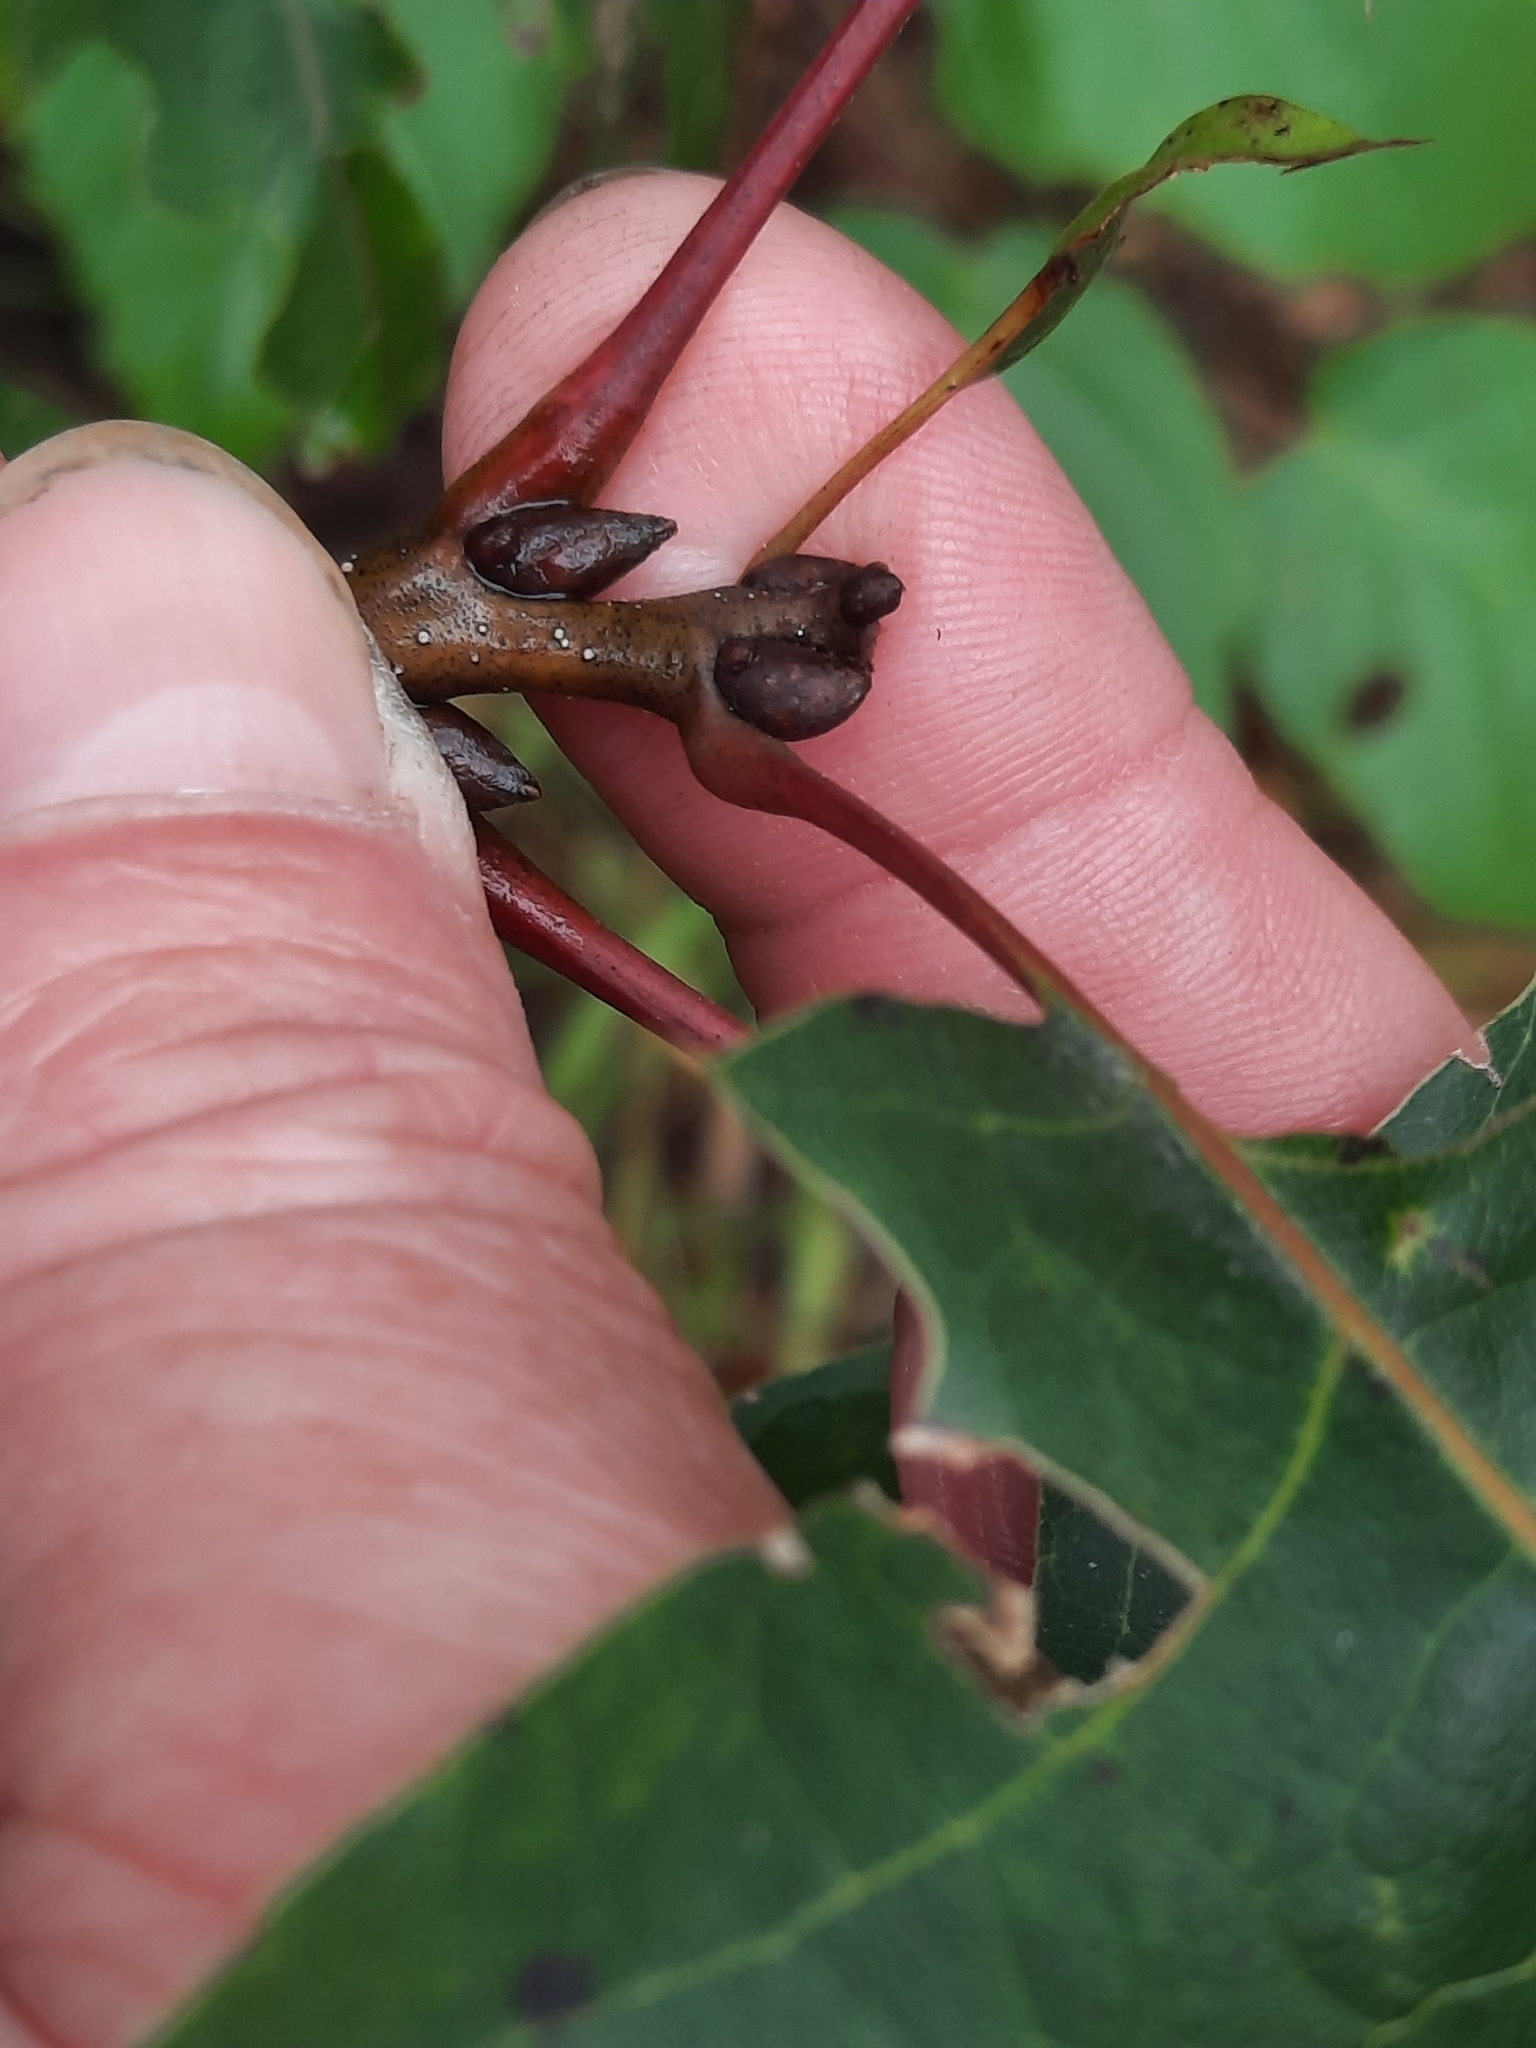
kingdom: Plantae
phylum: Tracheophyta
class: Magnoliopsida
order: Fagales
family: Fagaceae
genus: Quercus
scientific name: Quercus velutina
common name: Black oak
